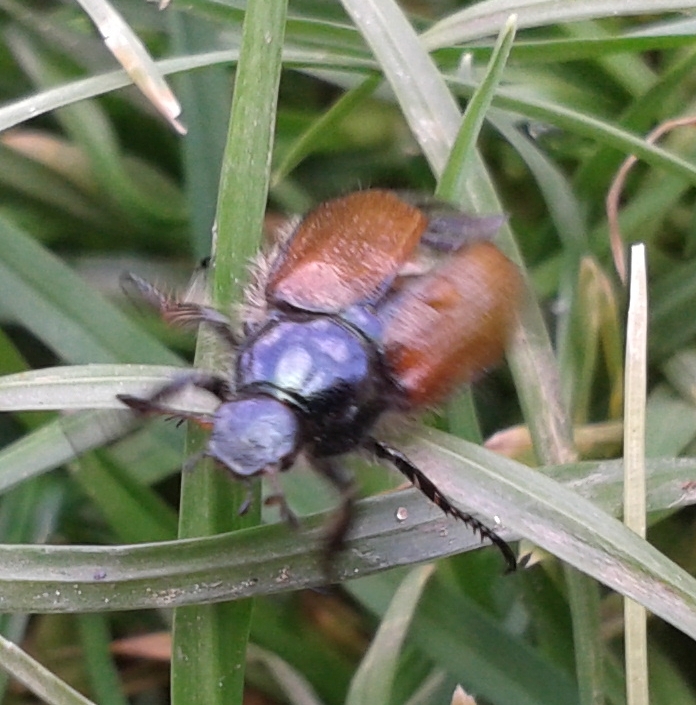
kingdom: Animalia
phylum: Arthropoda
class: Insecta
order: Coleoptera
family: Scarabaeidae
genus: Phyllopertha
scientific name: Phyllopertha horticola
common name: Garden chafer
